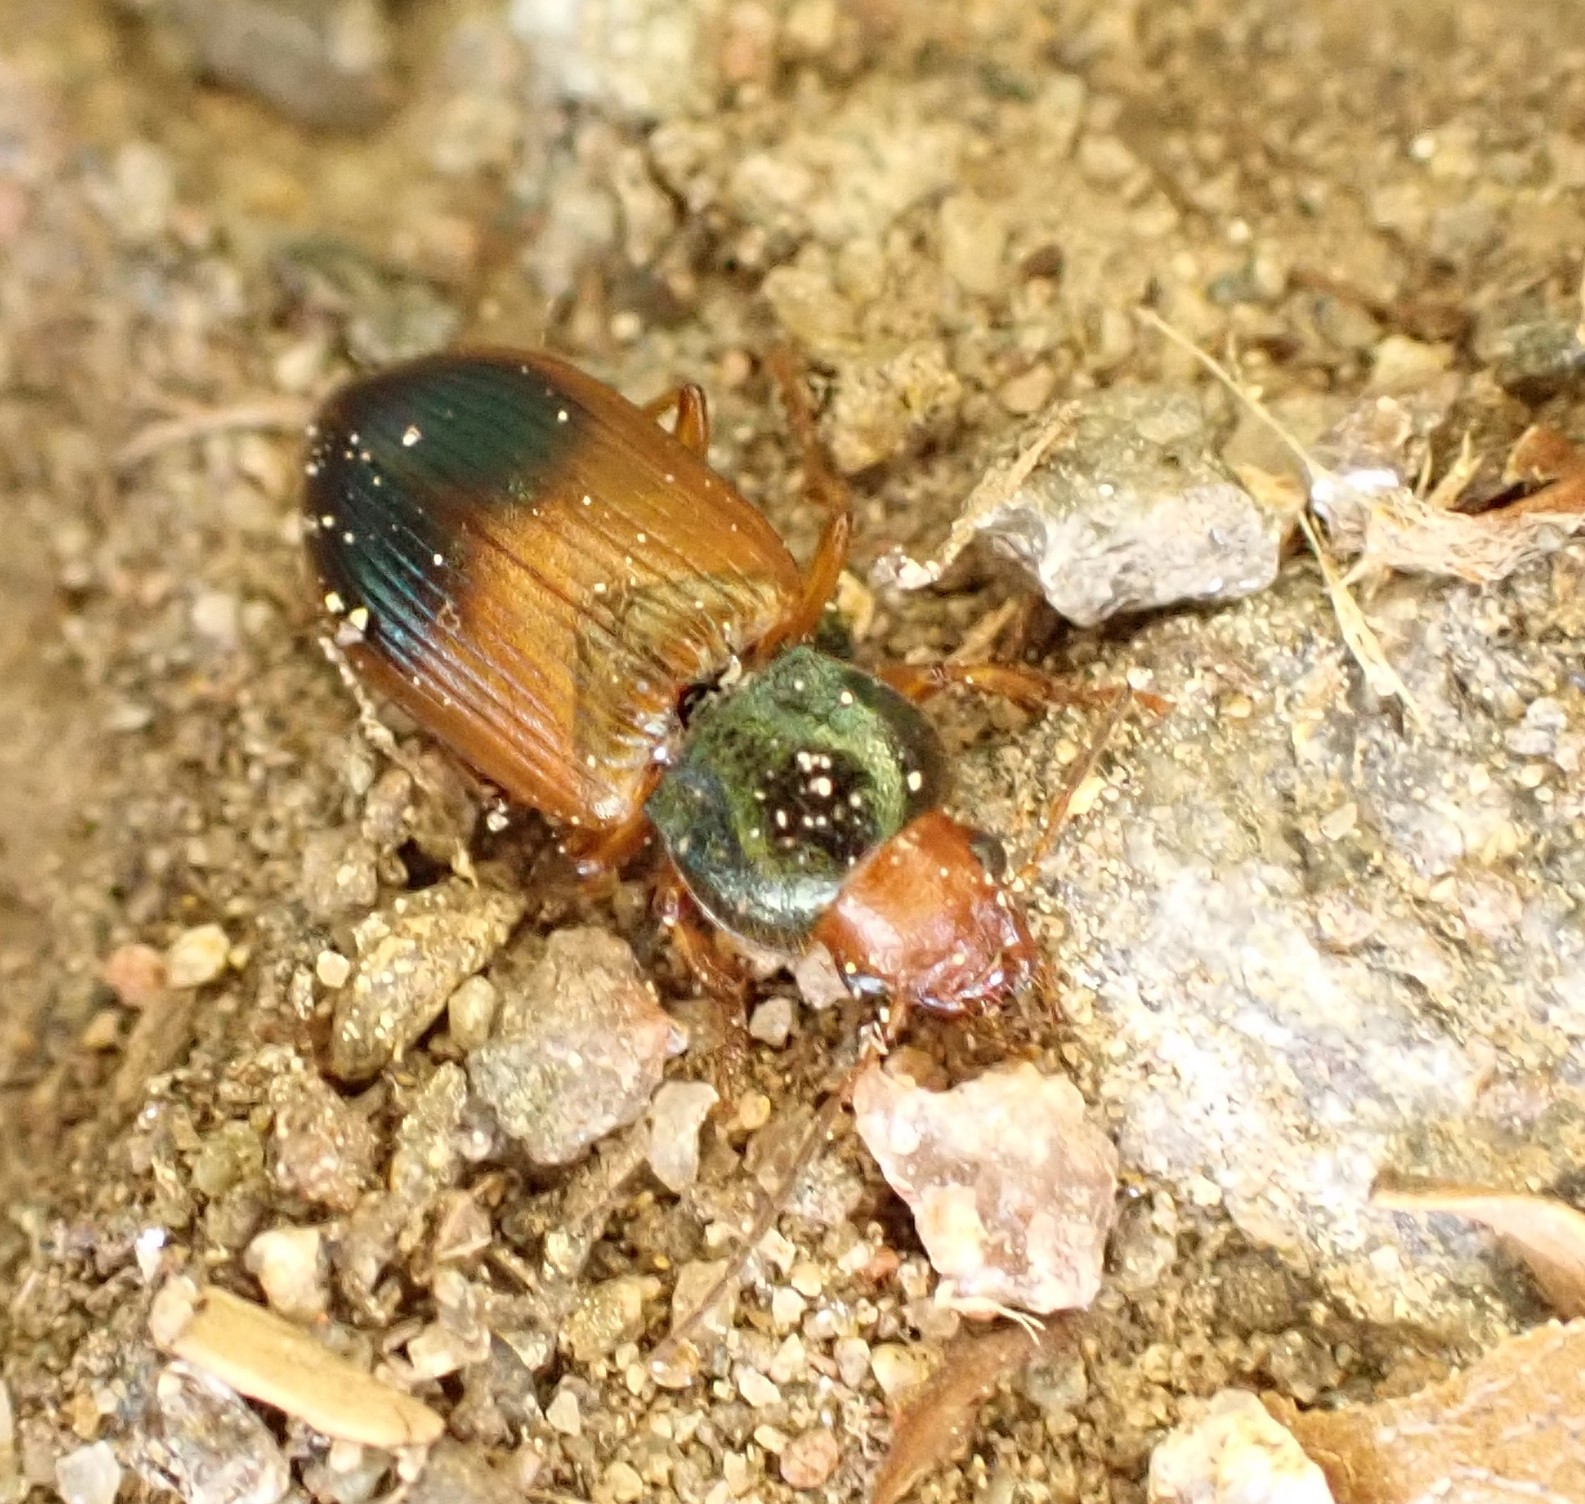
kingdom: Animalia
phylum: Arthropoda
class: Insecta
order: Coleoptera
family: Carabidae
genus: Diachromus
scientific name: Diachromus germanus
